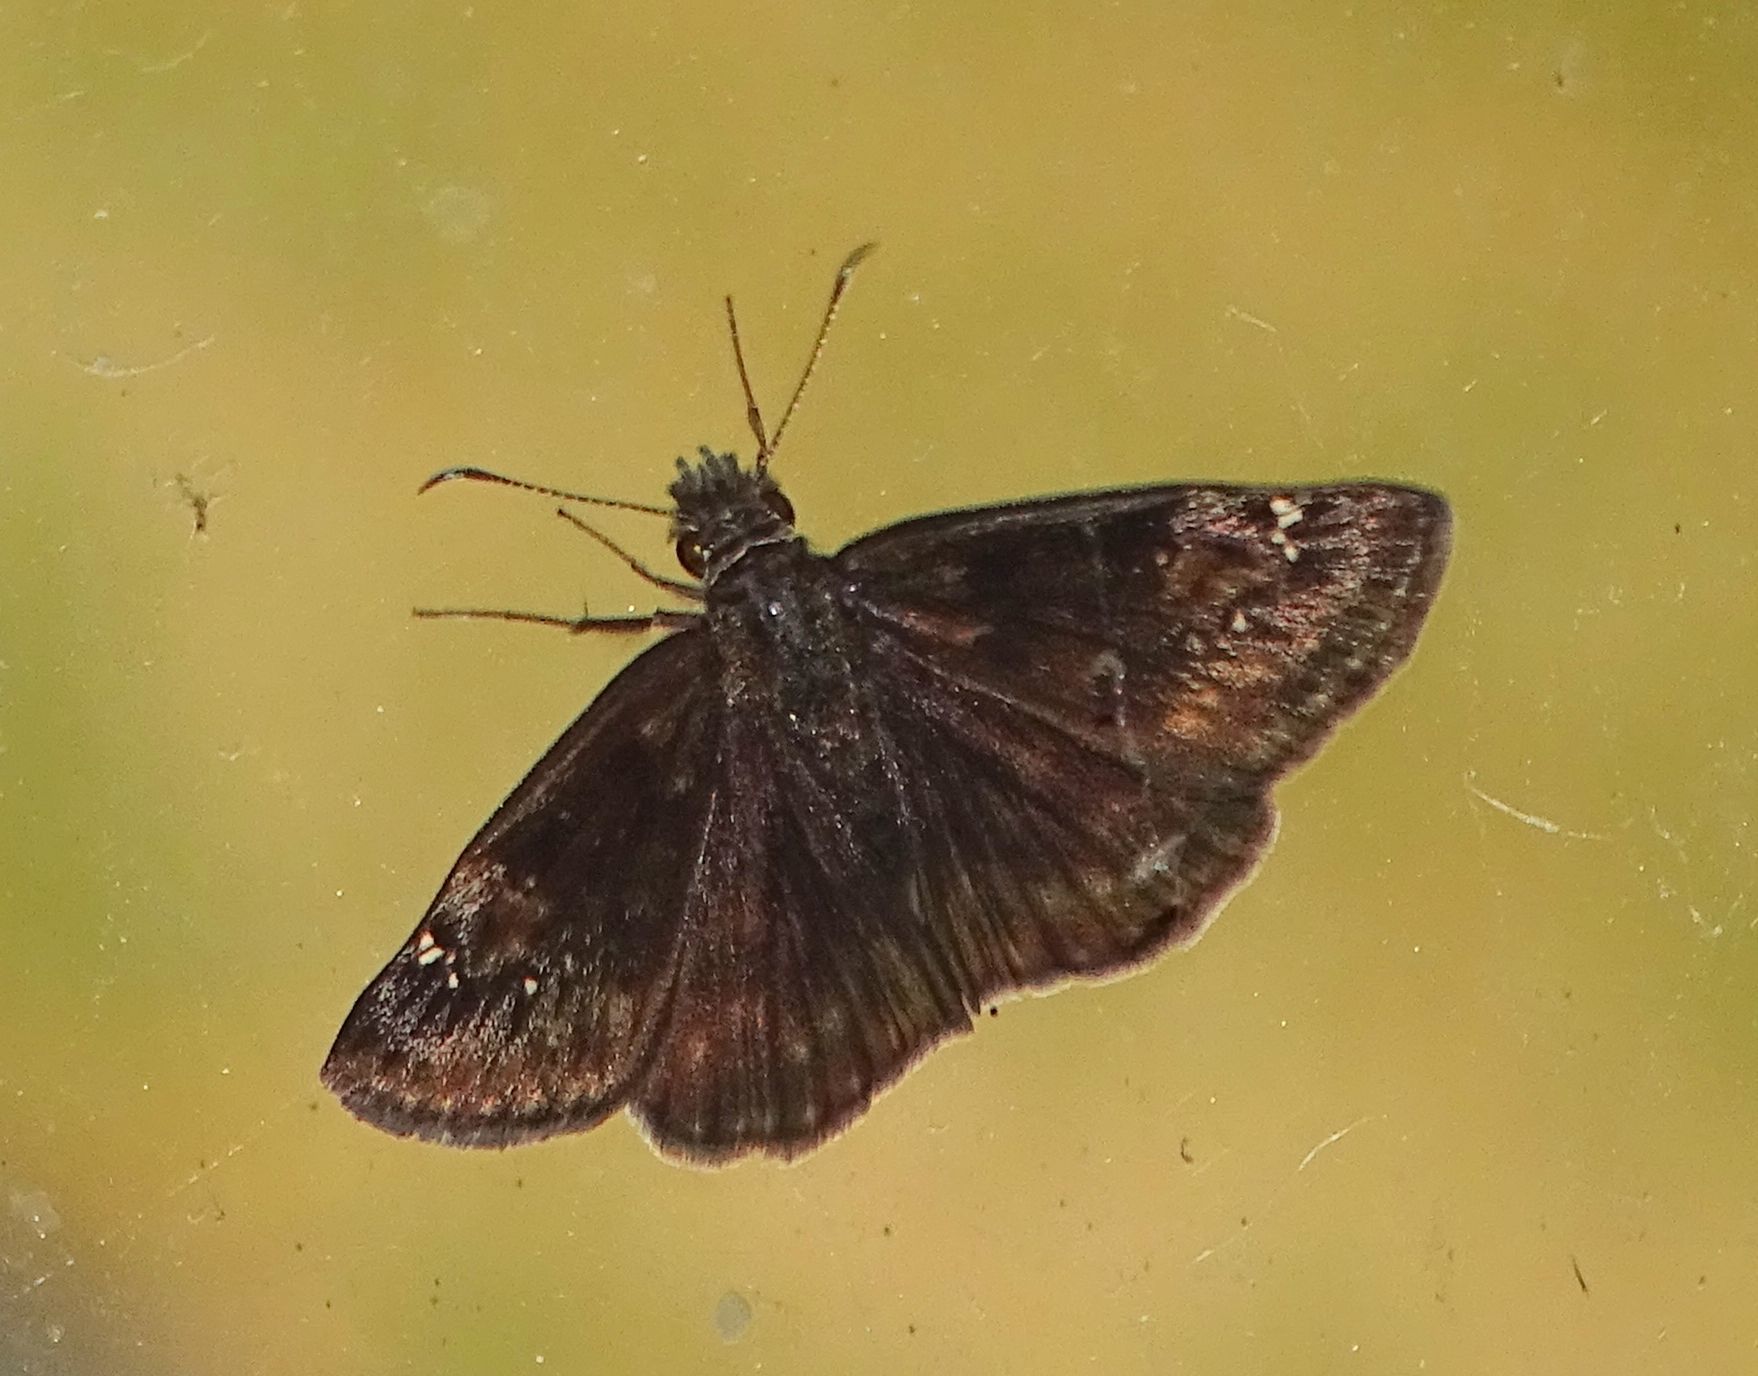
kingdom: Animalia
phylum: Arthropoda
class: Insecta
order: Lepidoptera
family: Hesperiidae
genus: Erynnis
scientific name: Erynnis baptisiae
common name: Wild indigo duskywing
